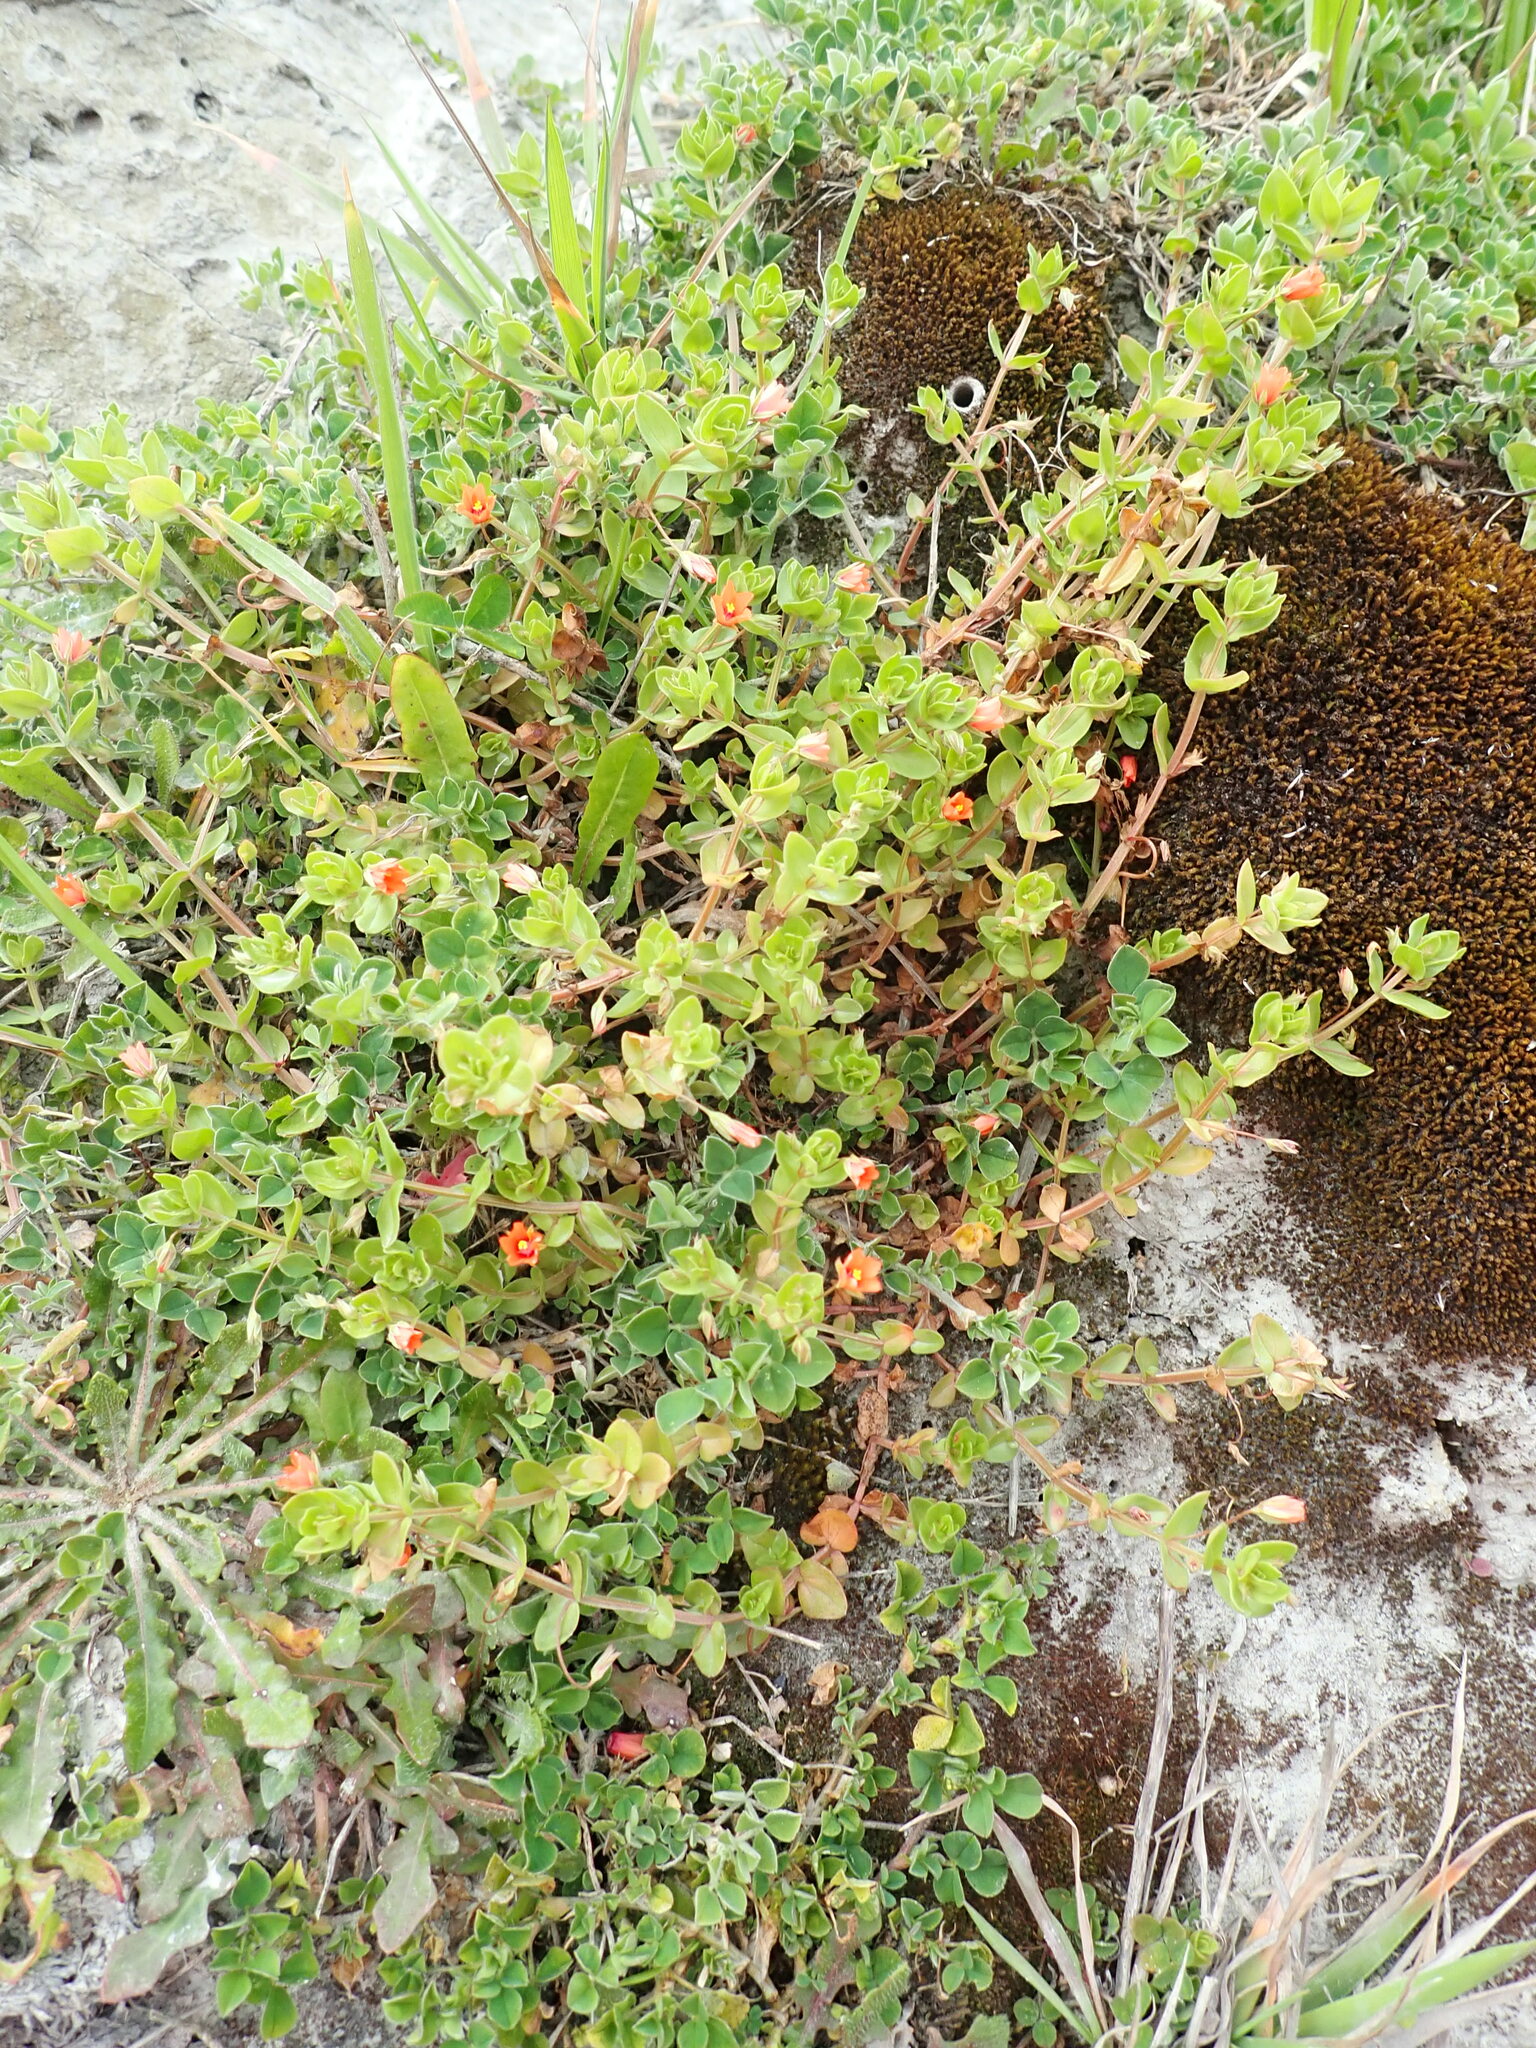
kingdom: Plantae
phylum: Tracheophyta
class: Magnoliopsida
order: Ericales
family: Primulaceae
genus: Lysimachia
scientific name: Lysimachia arvensis
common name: Scarlet pimpernel
